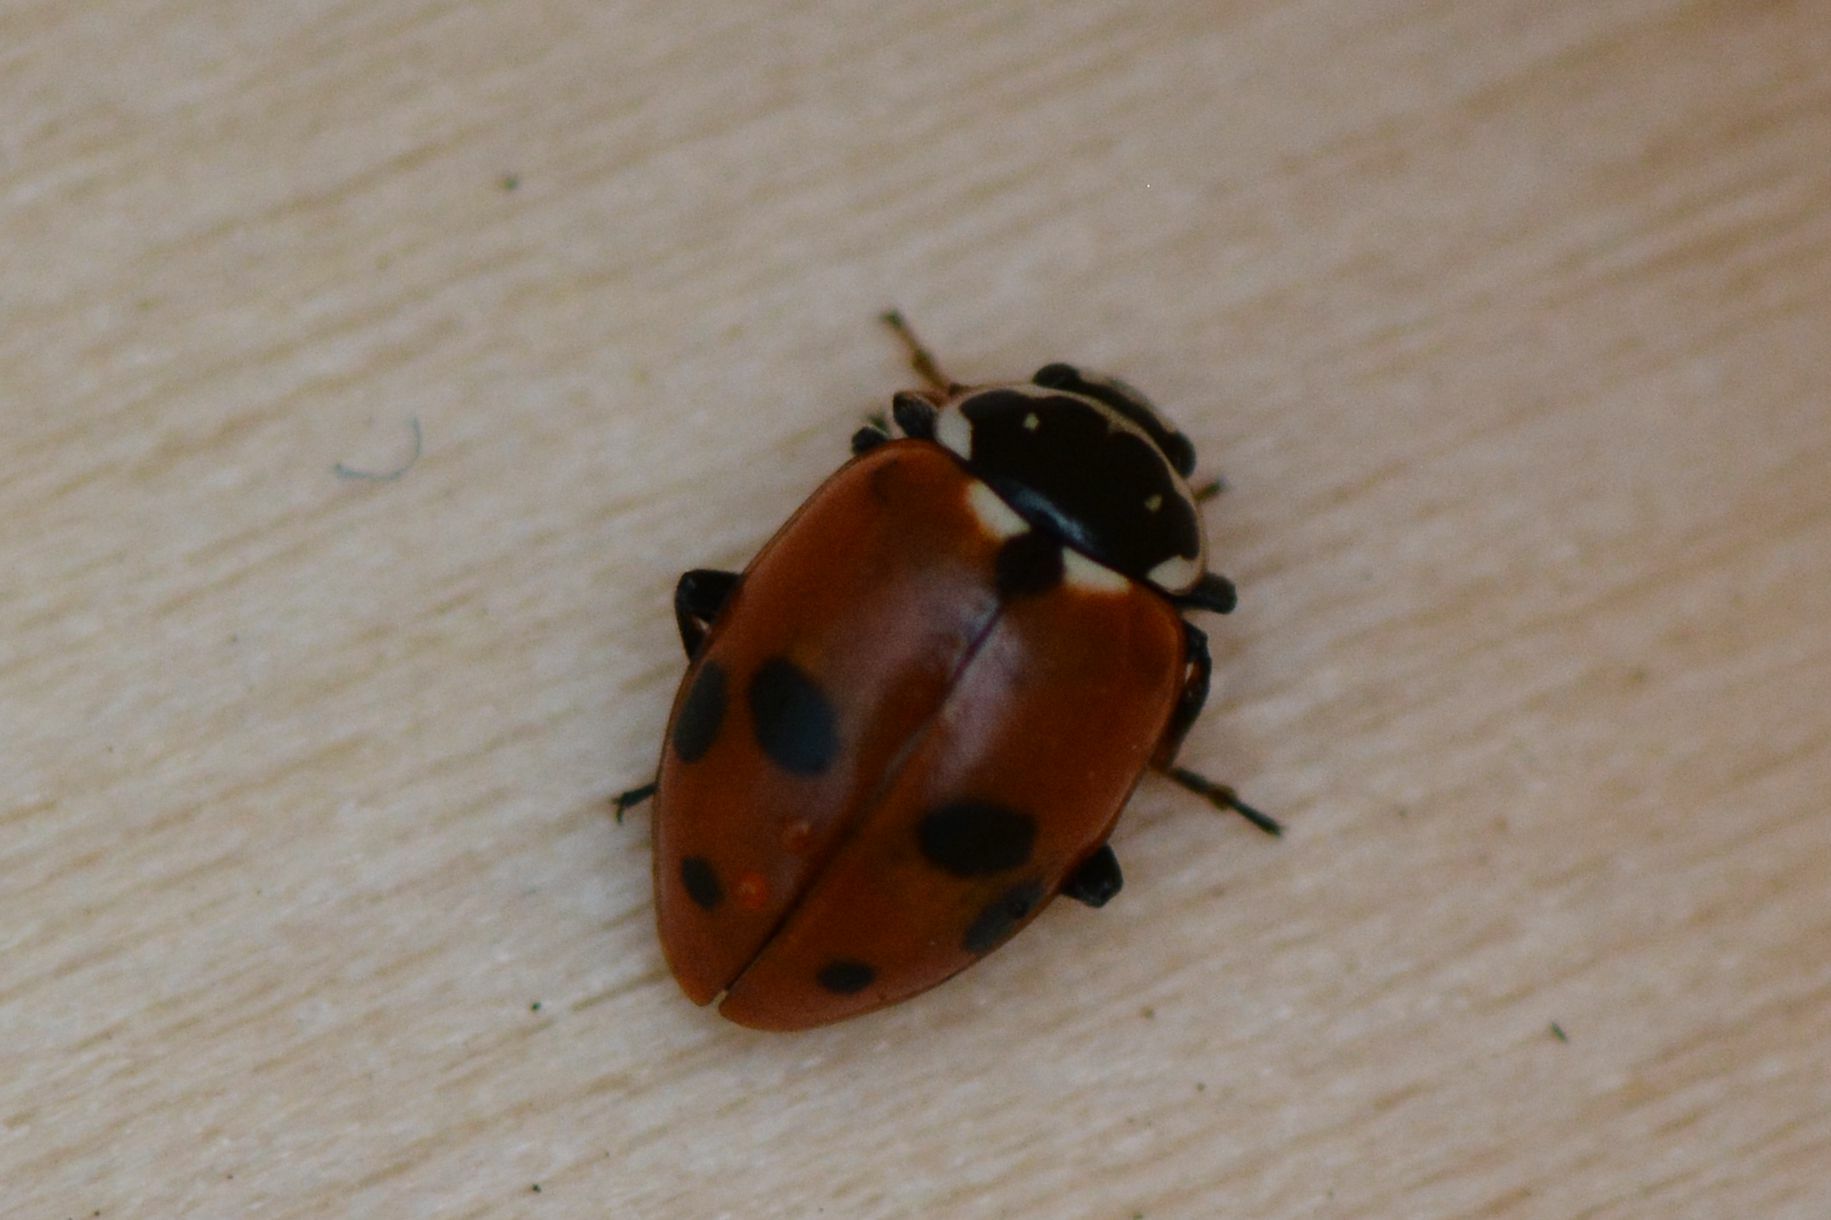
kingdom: Animalia
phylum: Arthropoda
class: Insecta
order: Coleoptera
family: Coccinellidae
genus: Hippodamia
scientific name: Hippodamia variegata
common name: Ladybird beetle
